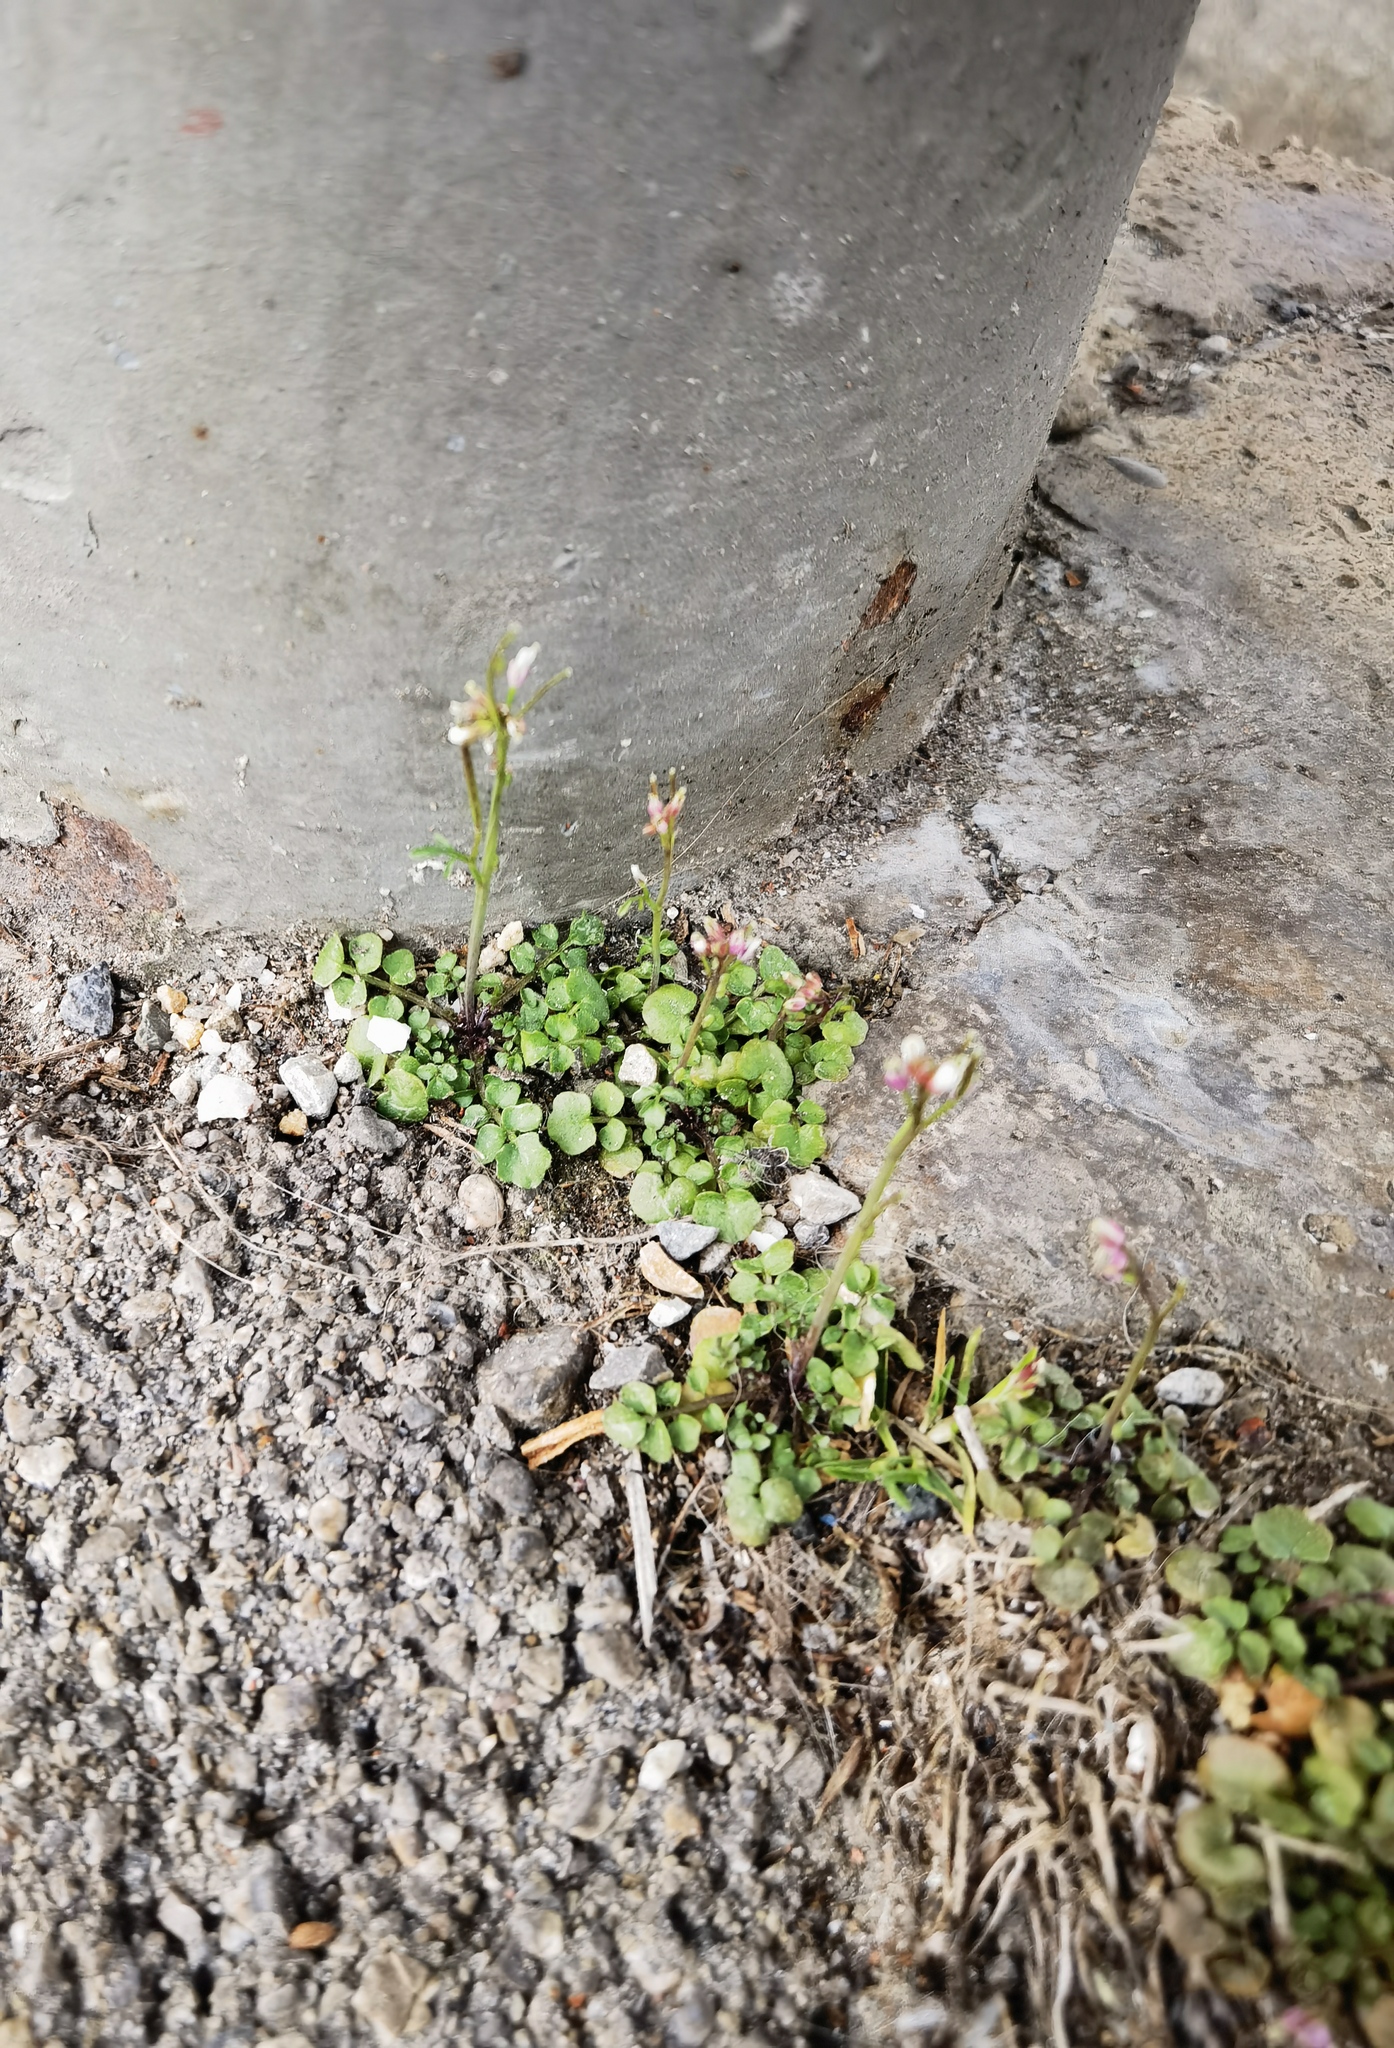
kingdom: Plantae
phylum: Tracheophyta
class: Magnoliopsida
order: Brassicales
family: Brassicaceae
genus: Cardamine
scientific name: Cardamine hirsuta
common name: Hairy bittercress
